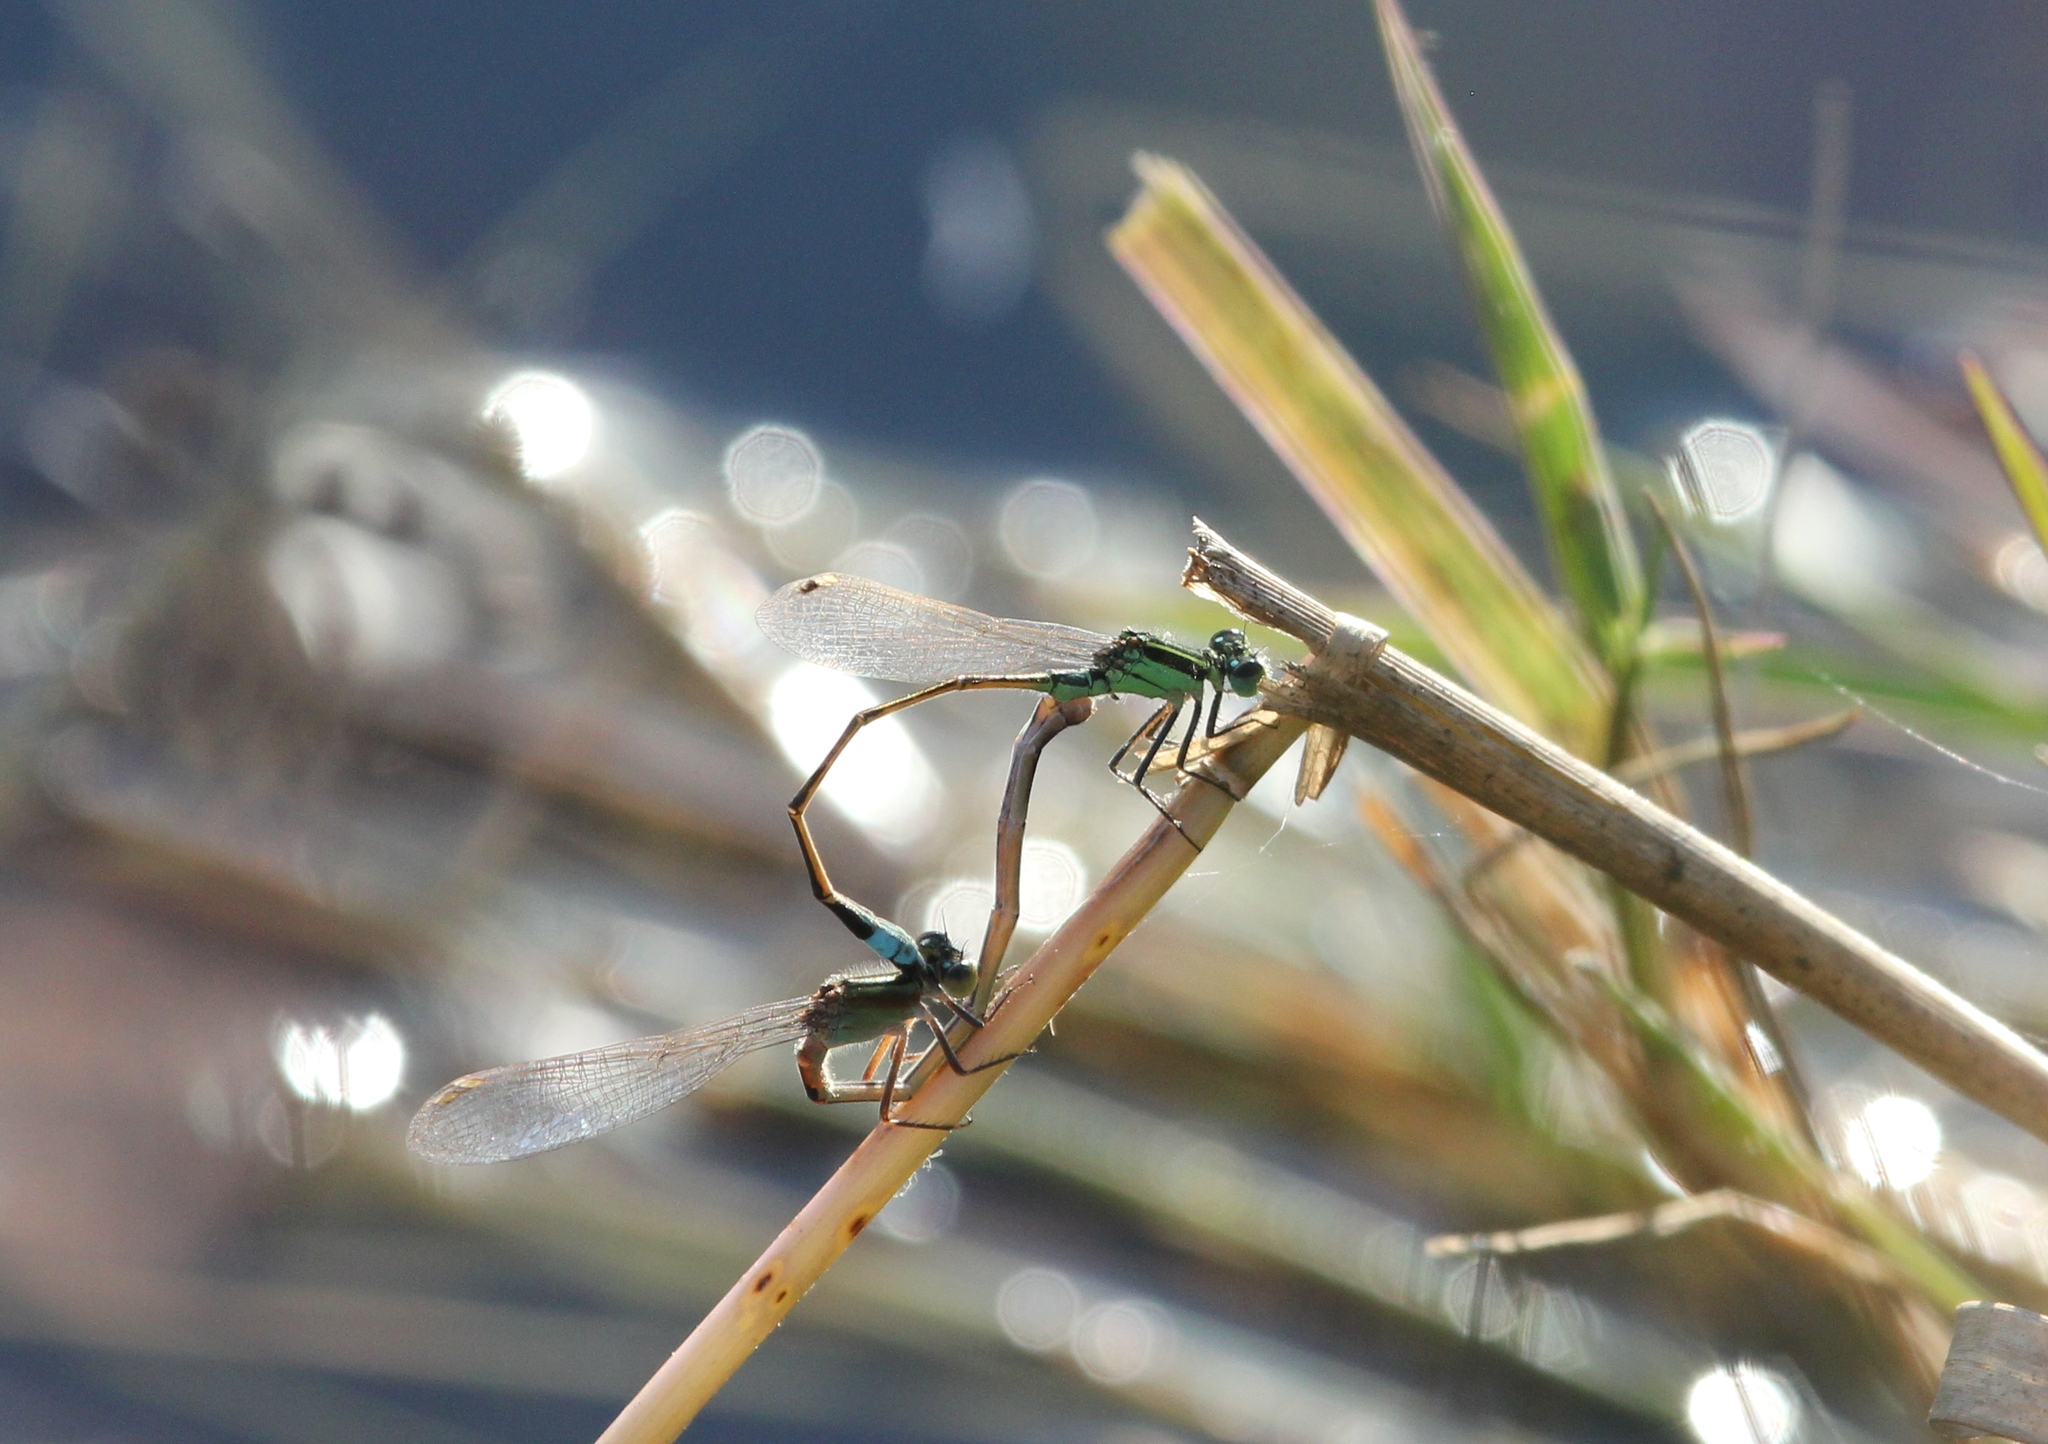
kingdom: Animalia
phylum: Arthropoda
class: Insecta
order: Odonata
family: Coenagrionidae
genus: Ischnura
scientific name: Ischnura ramburii
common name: Rambur's forktail
